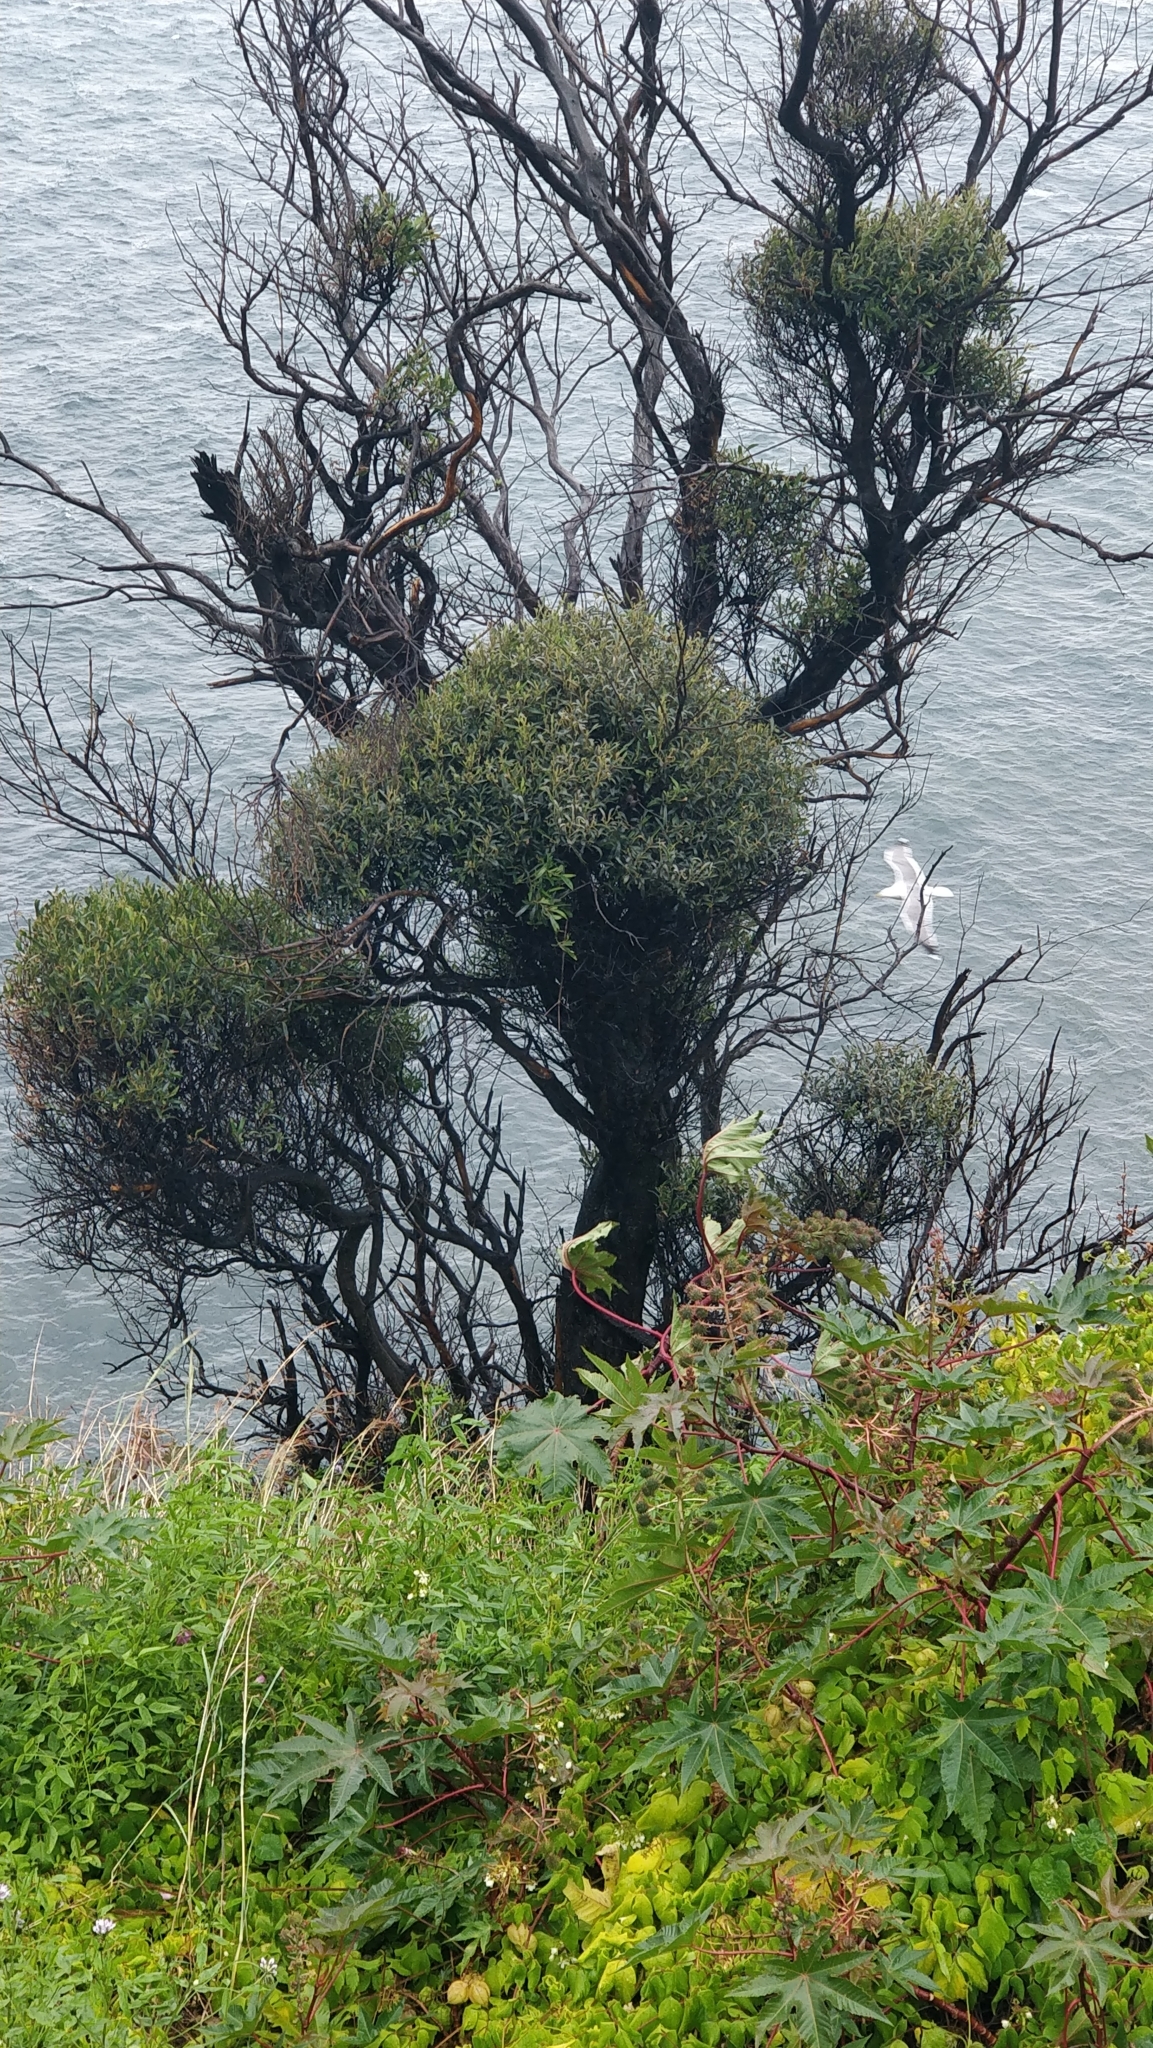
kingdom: Plantae
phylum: Tracheophyta
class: Magnoliopsida
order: Lamiales
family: Oleaceae
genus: Olea
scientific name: Olea europaea
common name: Olive
